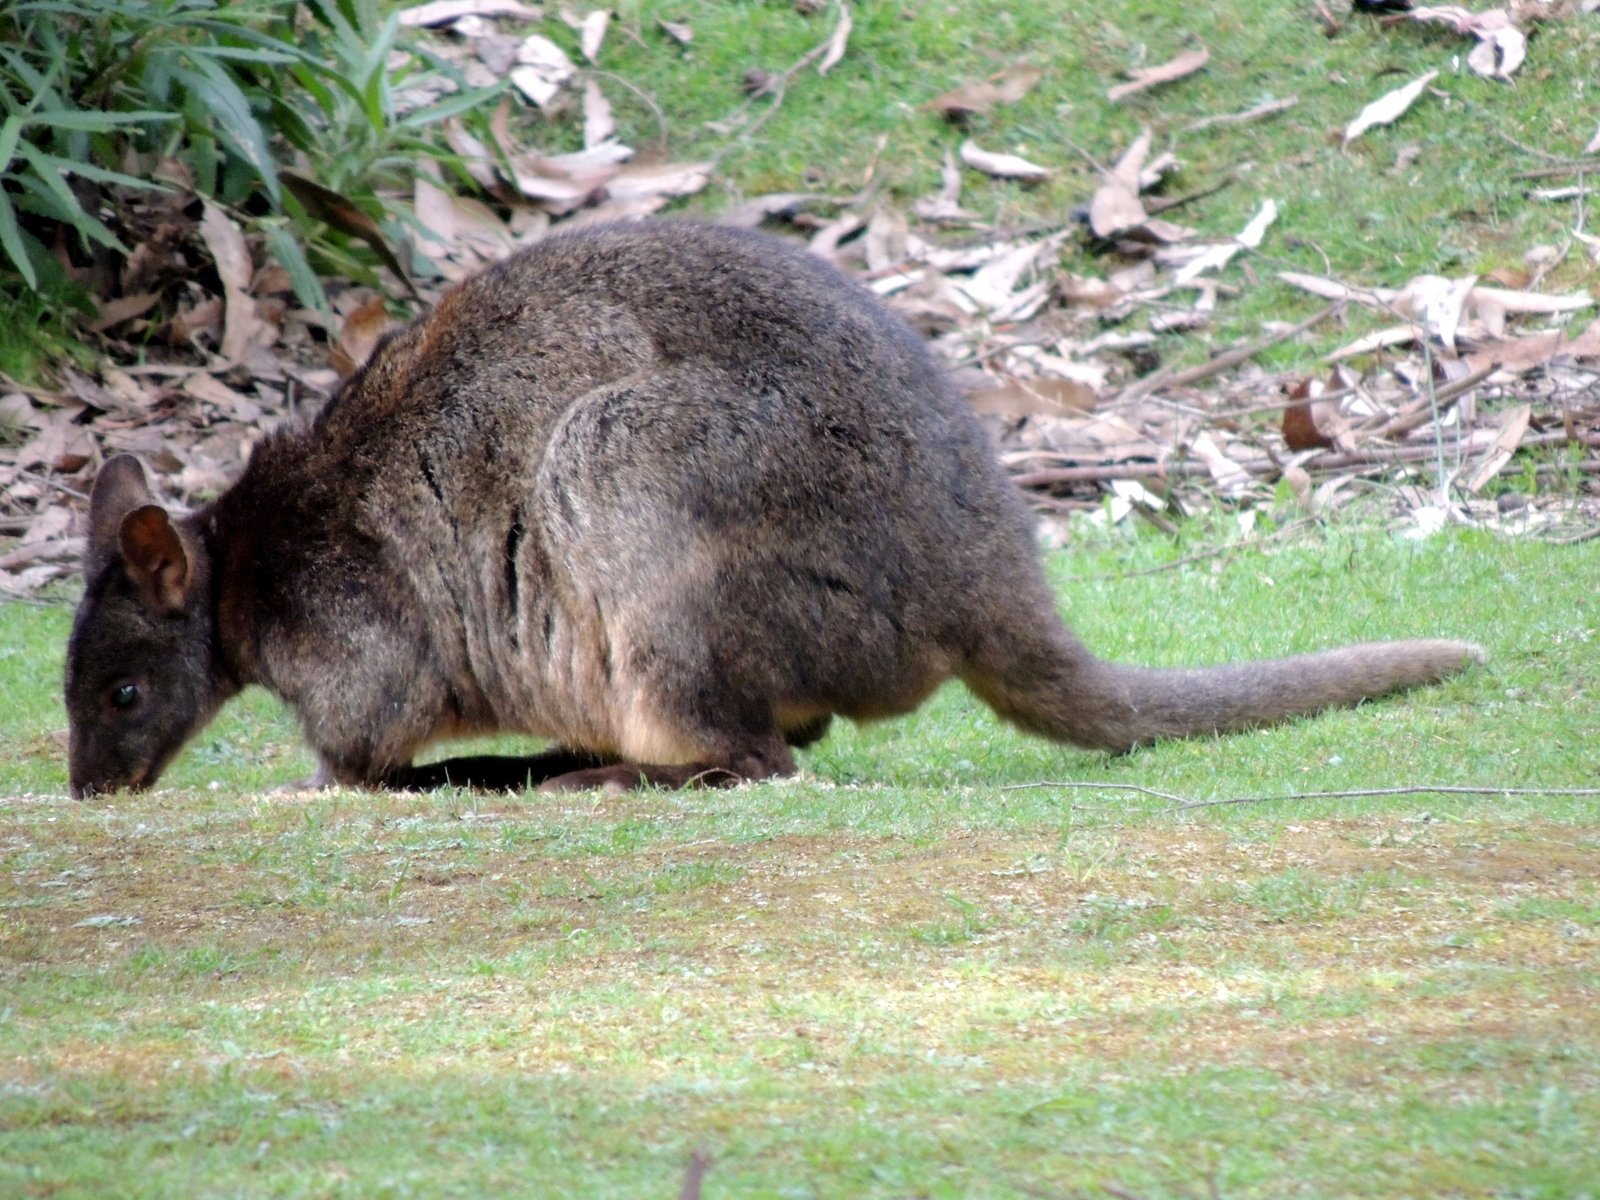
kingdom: Animalia
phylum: Chordata
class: Mammalia
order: Diprotodontia
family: Macropodidae
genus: Thylogale
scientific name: Thylogale billardierii
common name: Tasmanian pademelon
